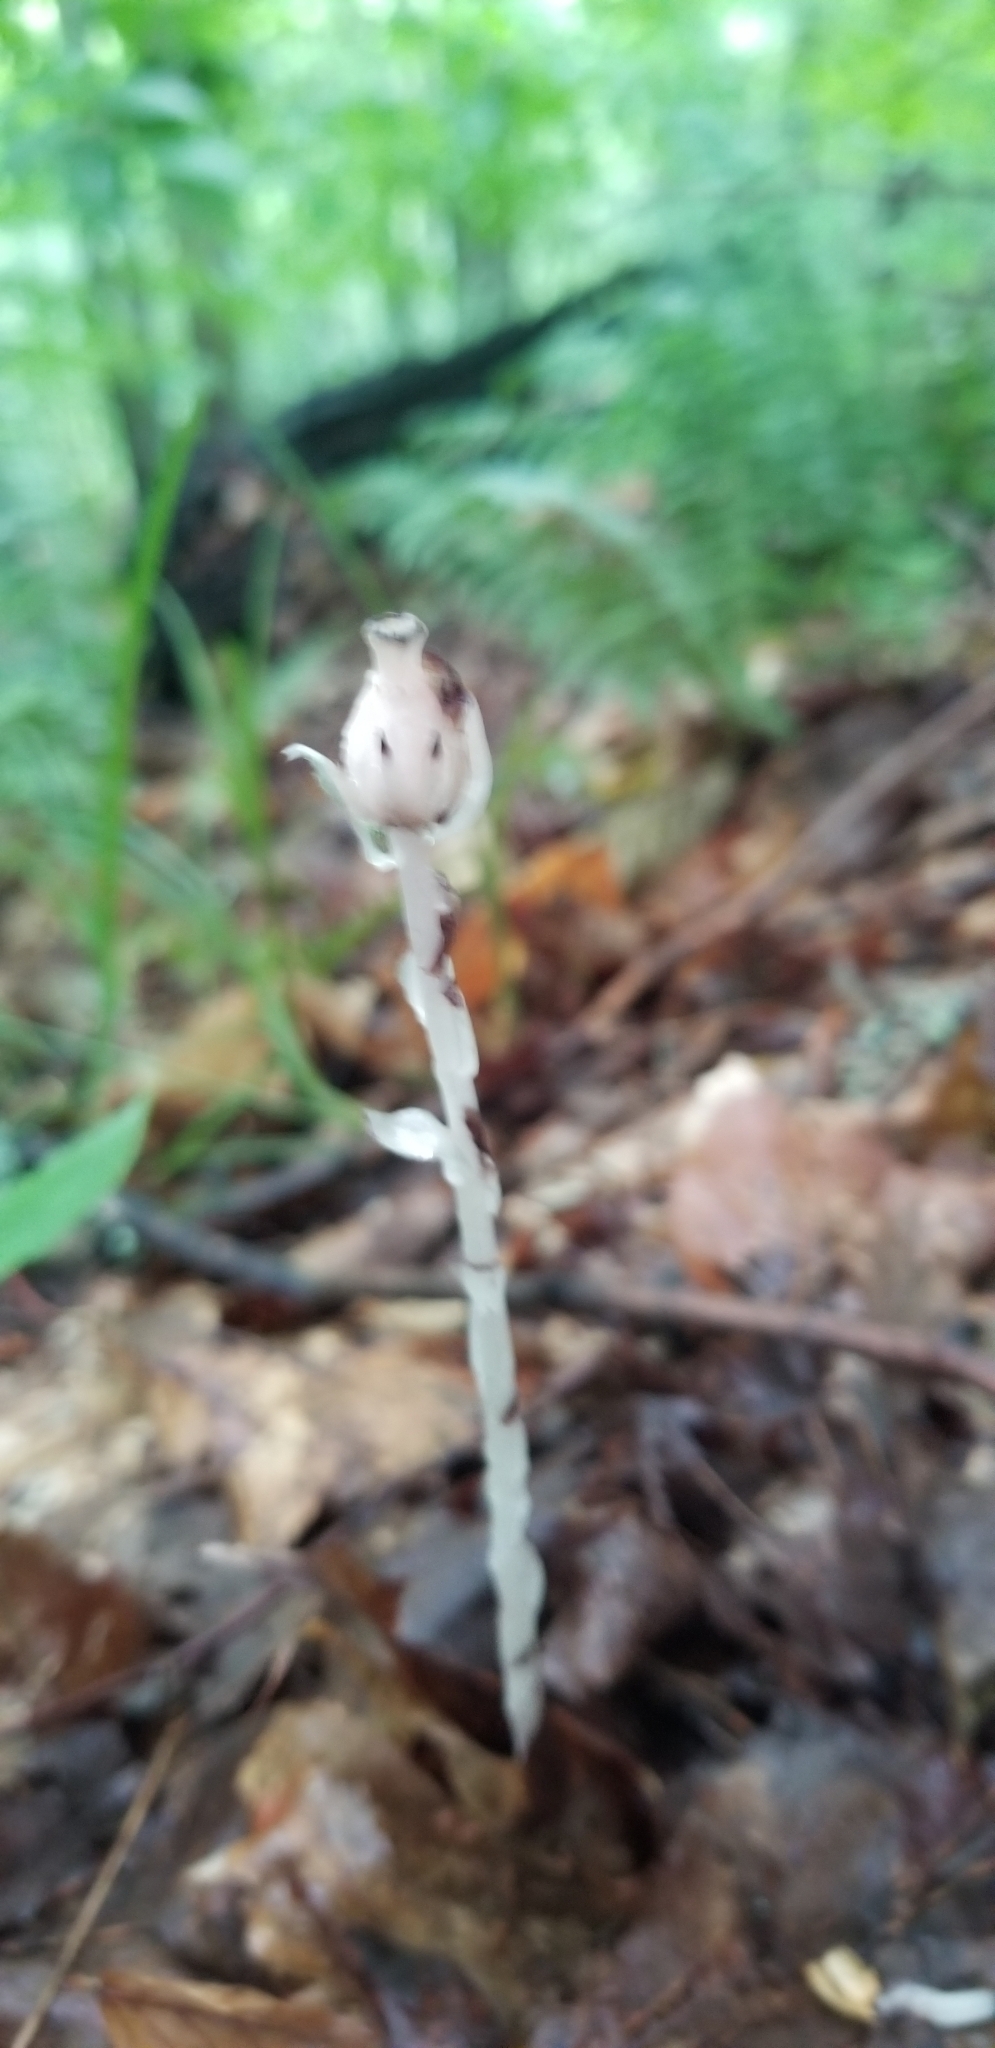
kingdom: Plantae
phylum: Tracheophyta
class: Magnoliopsida
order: Ericales
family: Ericaceae
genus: Monotropa
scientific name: Monotropa uniflora
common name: Convulsion root
